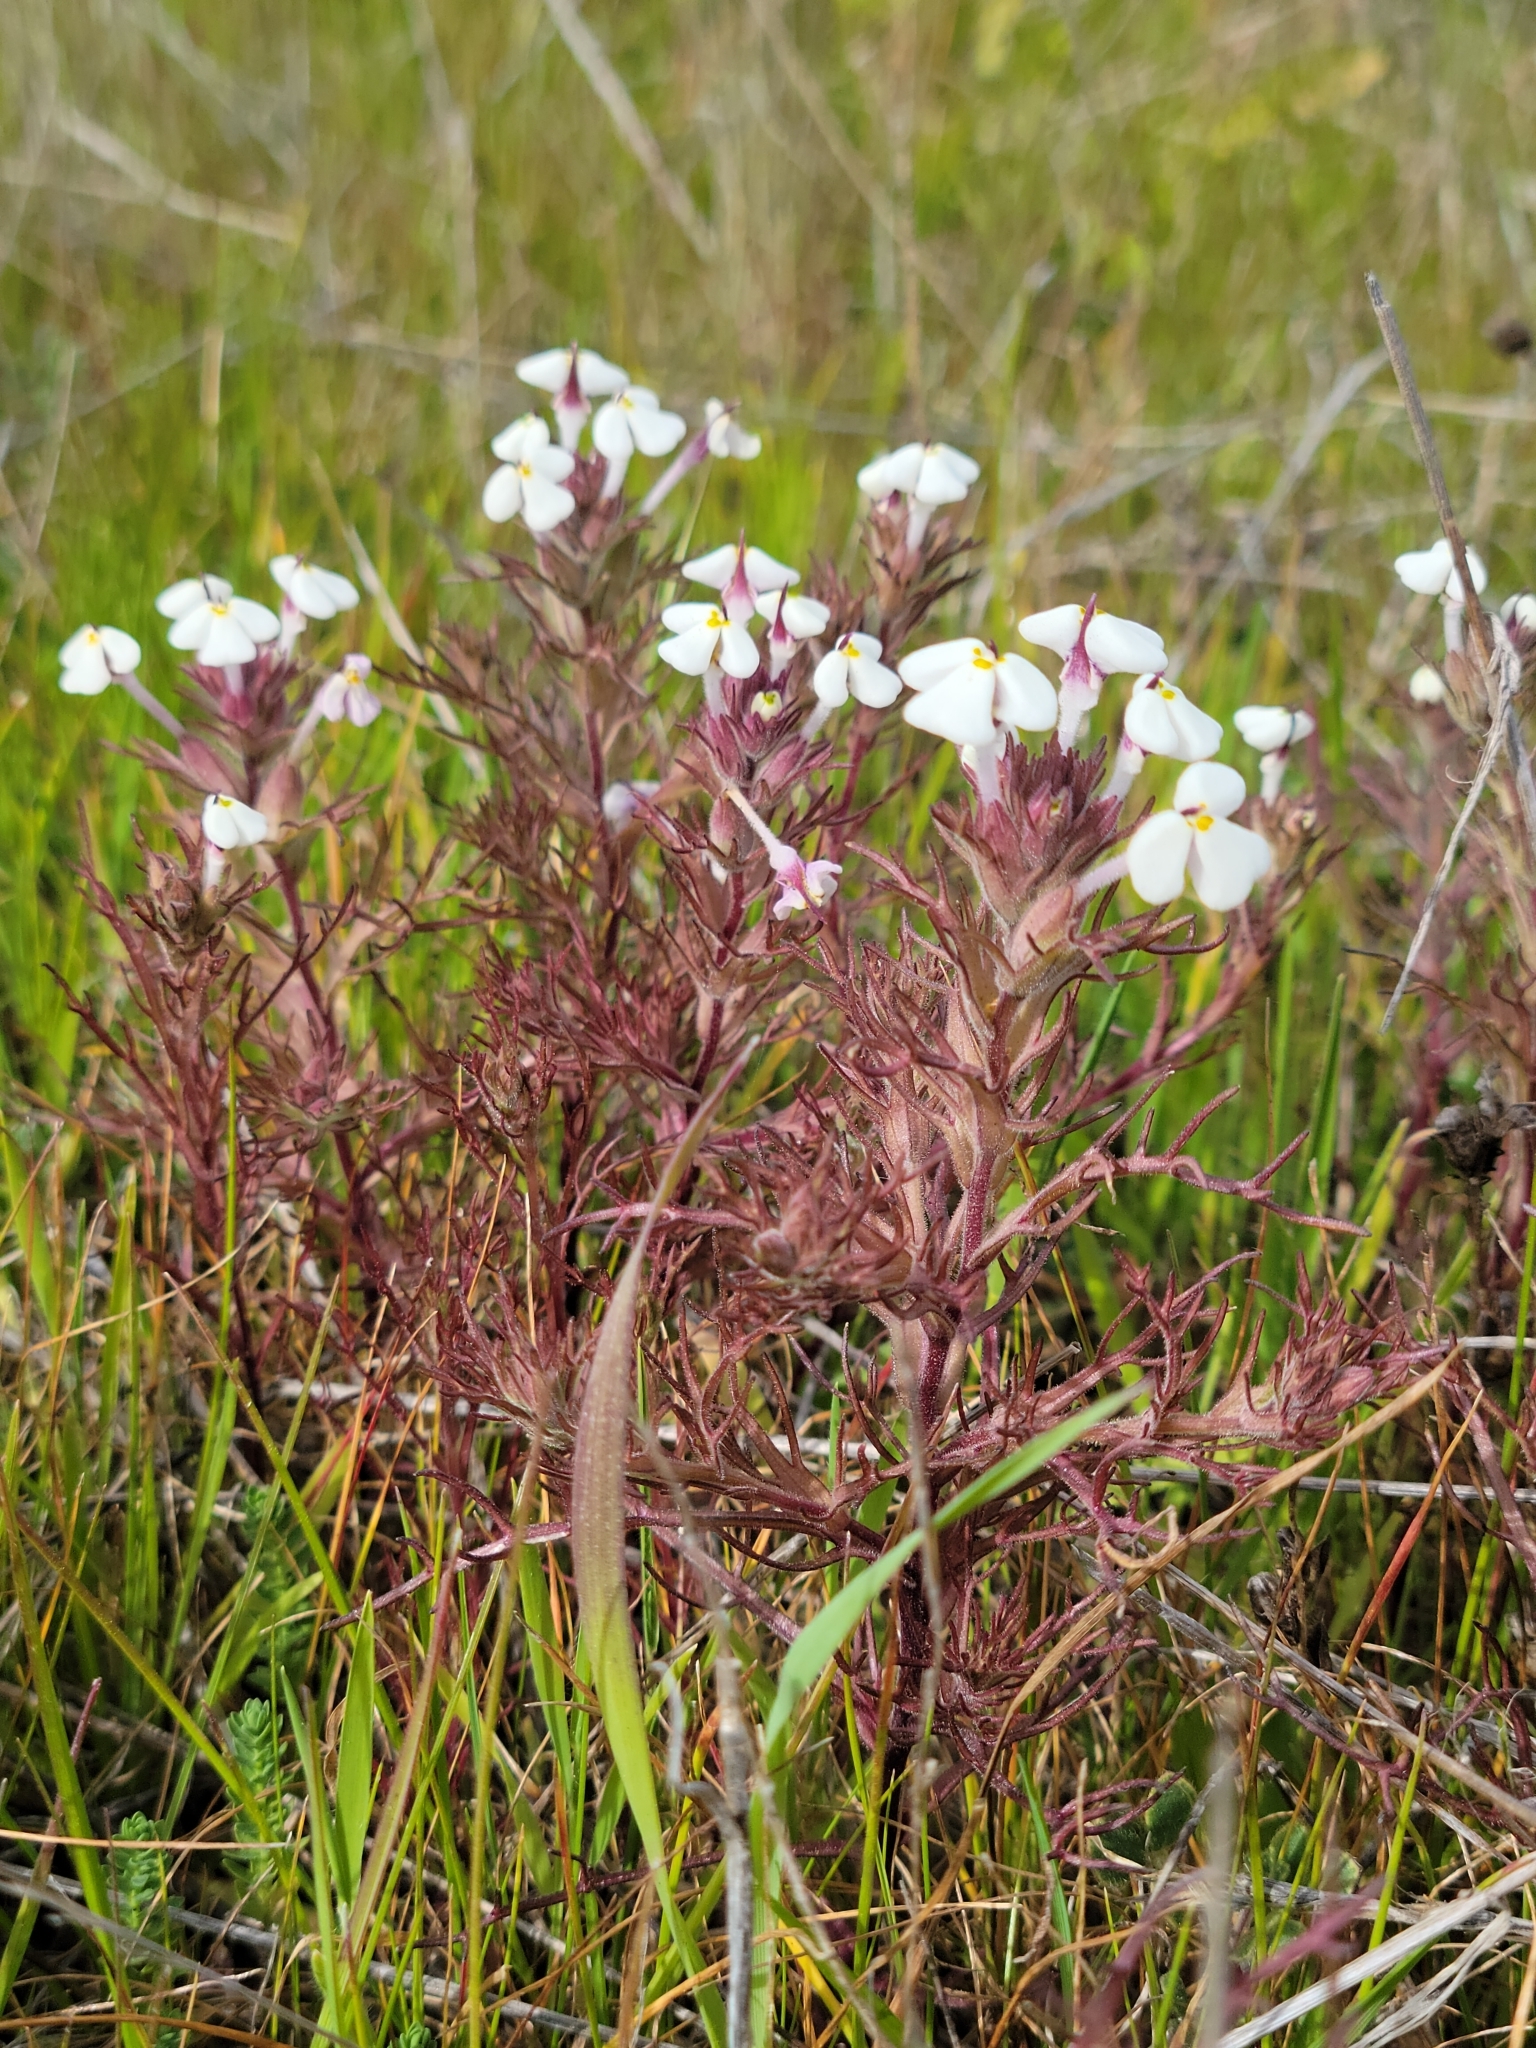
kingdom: Plantae
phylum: Tracheophyta
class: Magnoliopsida
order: Lamiales
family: Orobanchaceae
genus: Triphysaria
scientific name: Triphysaria eriantha
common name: Johnny-tuck
